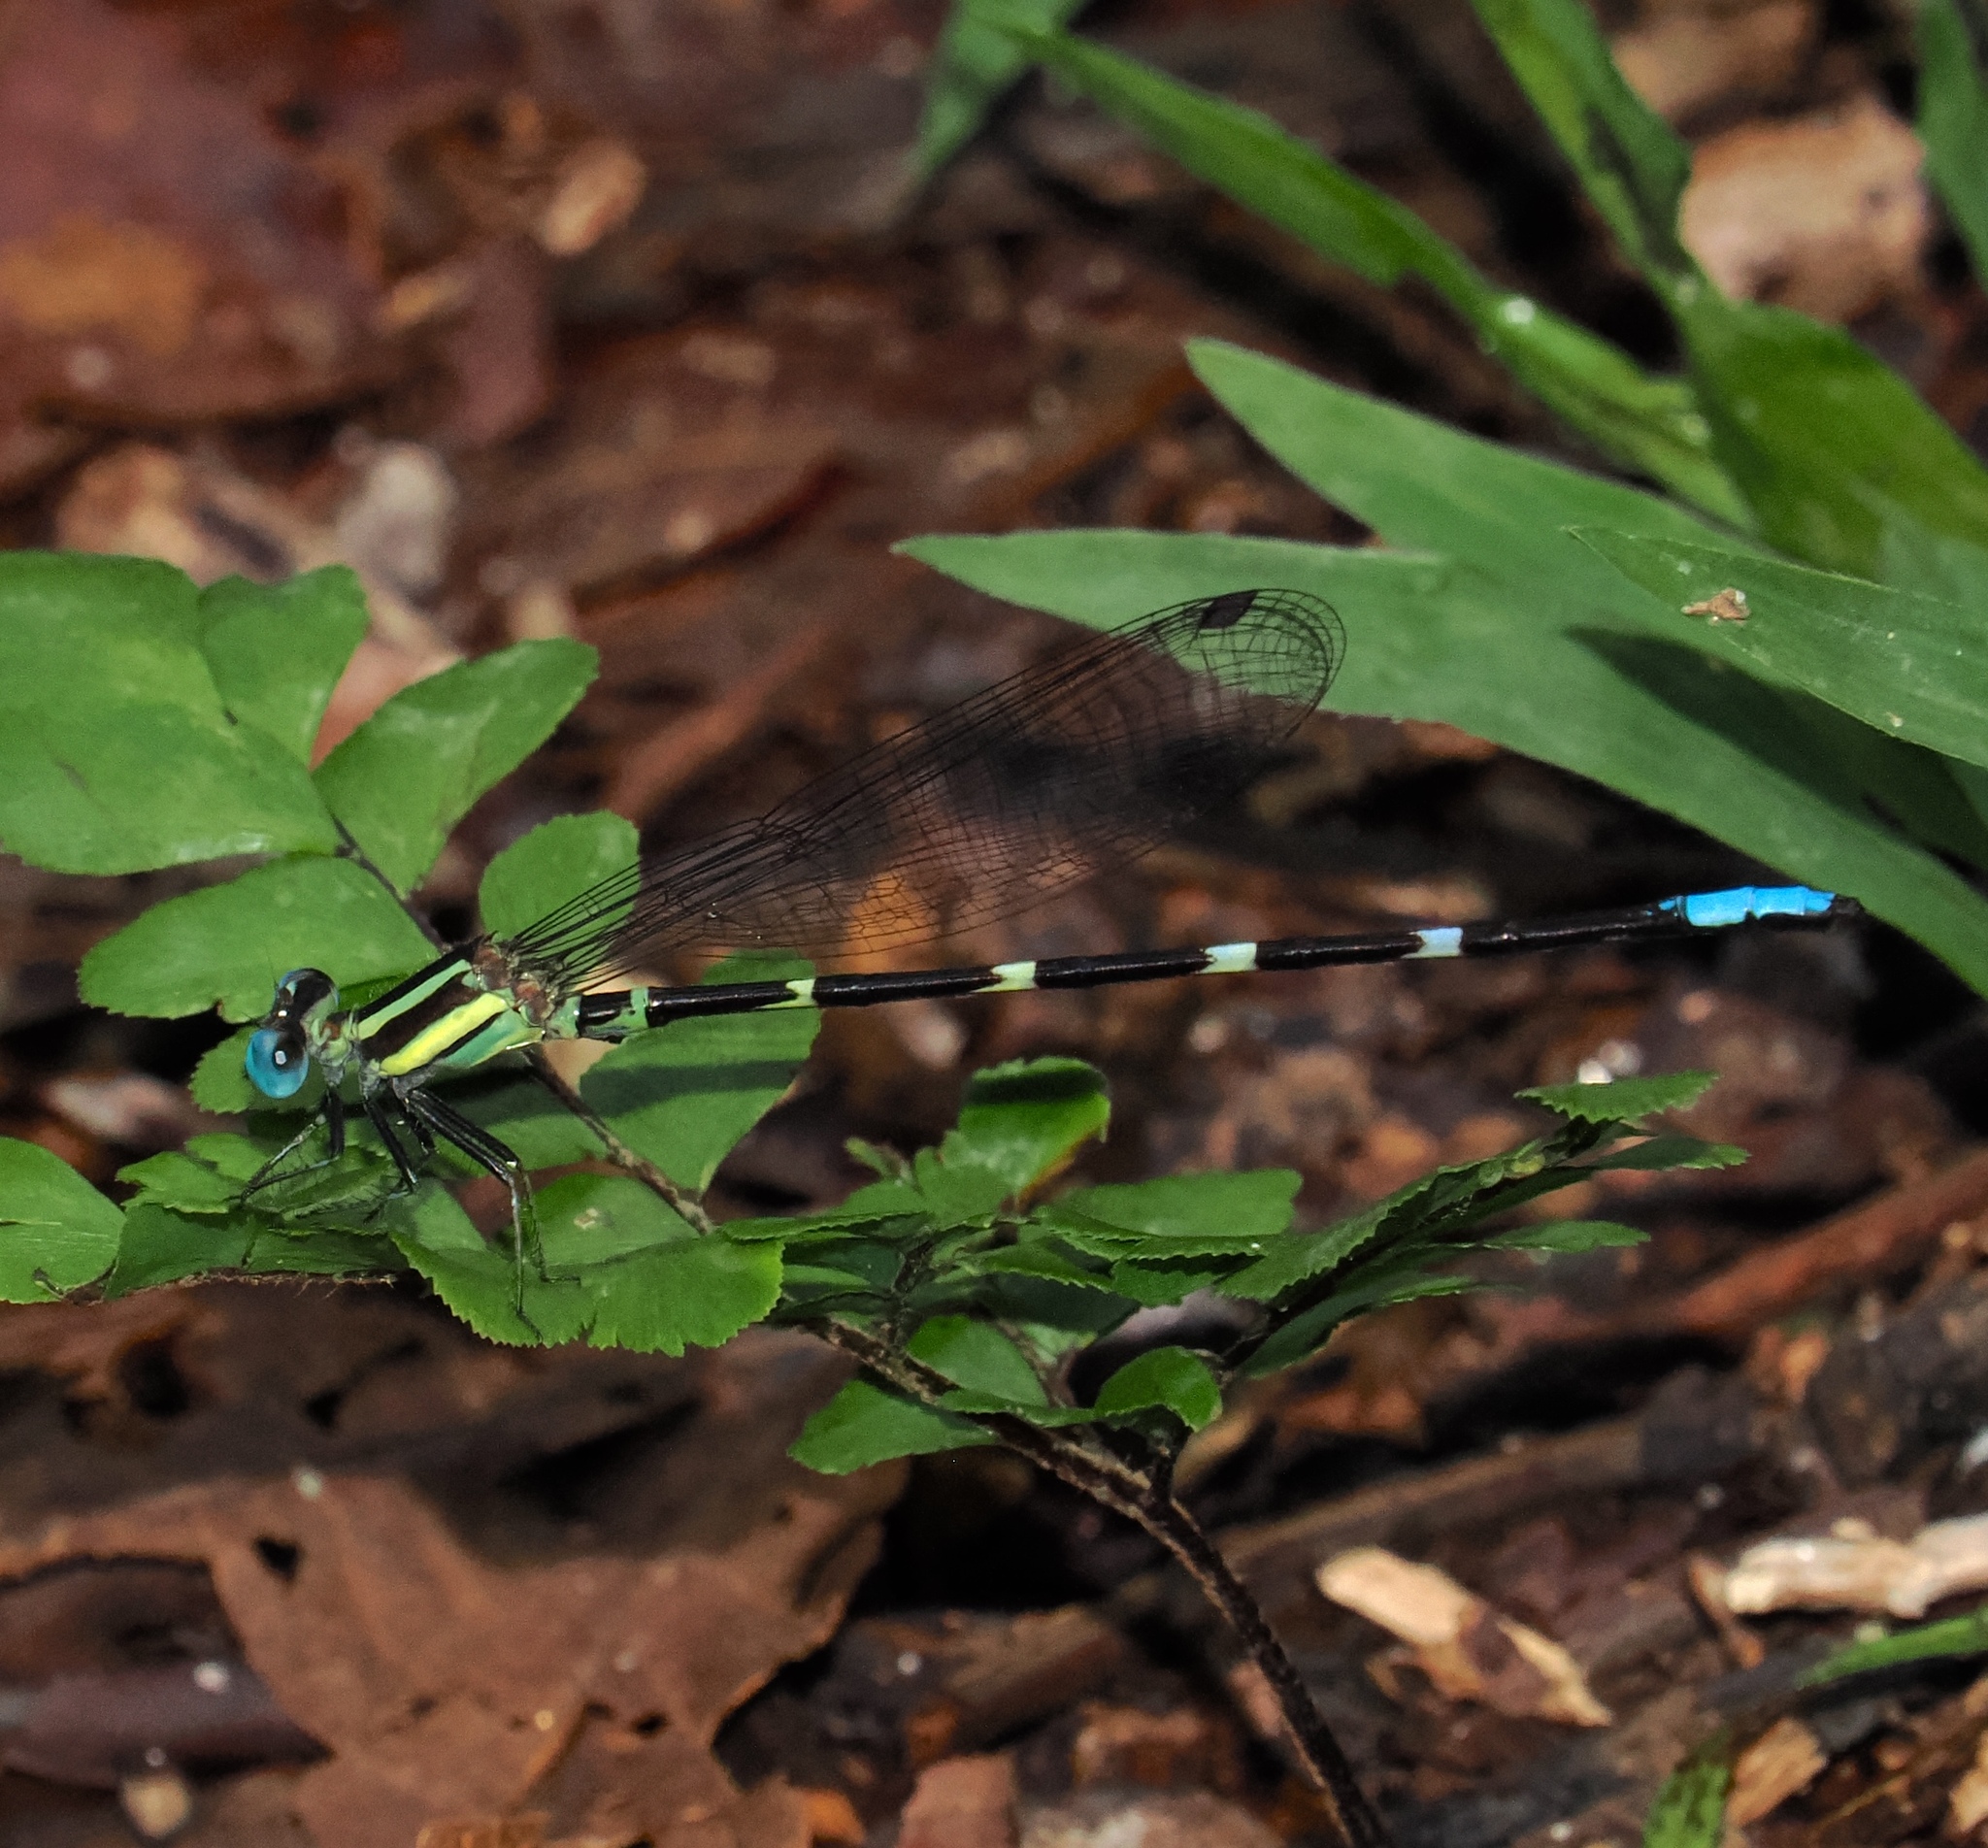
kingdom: Animalia
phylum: Arthropoda
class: Insecta
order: Odonata
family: Coenagrionidae
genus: Leptagrion
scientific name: Leptagrion macrurum
